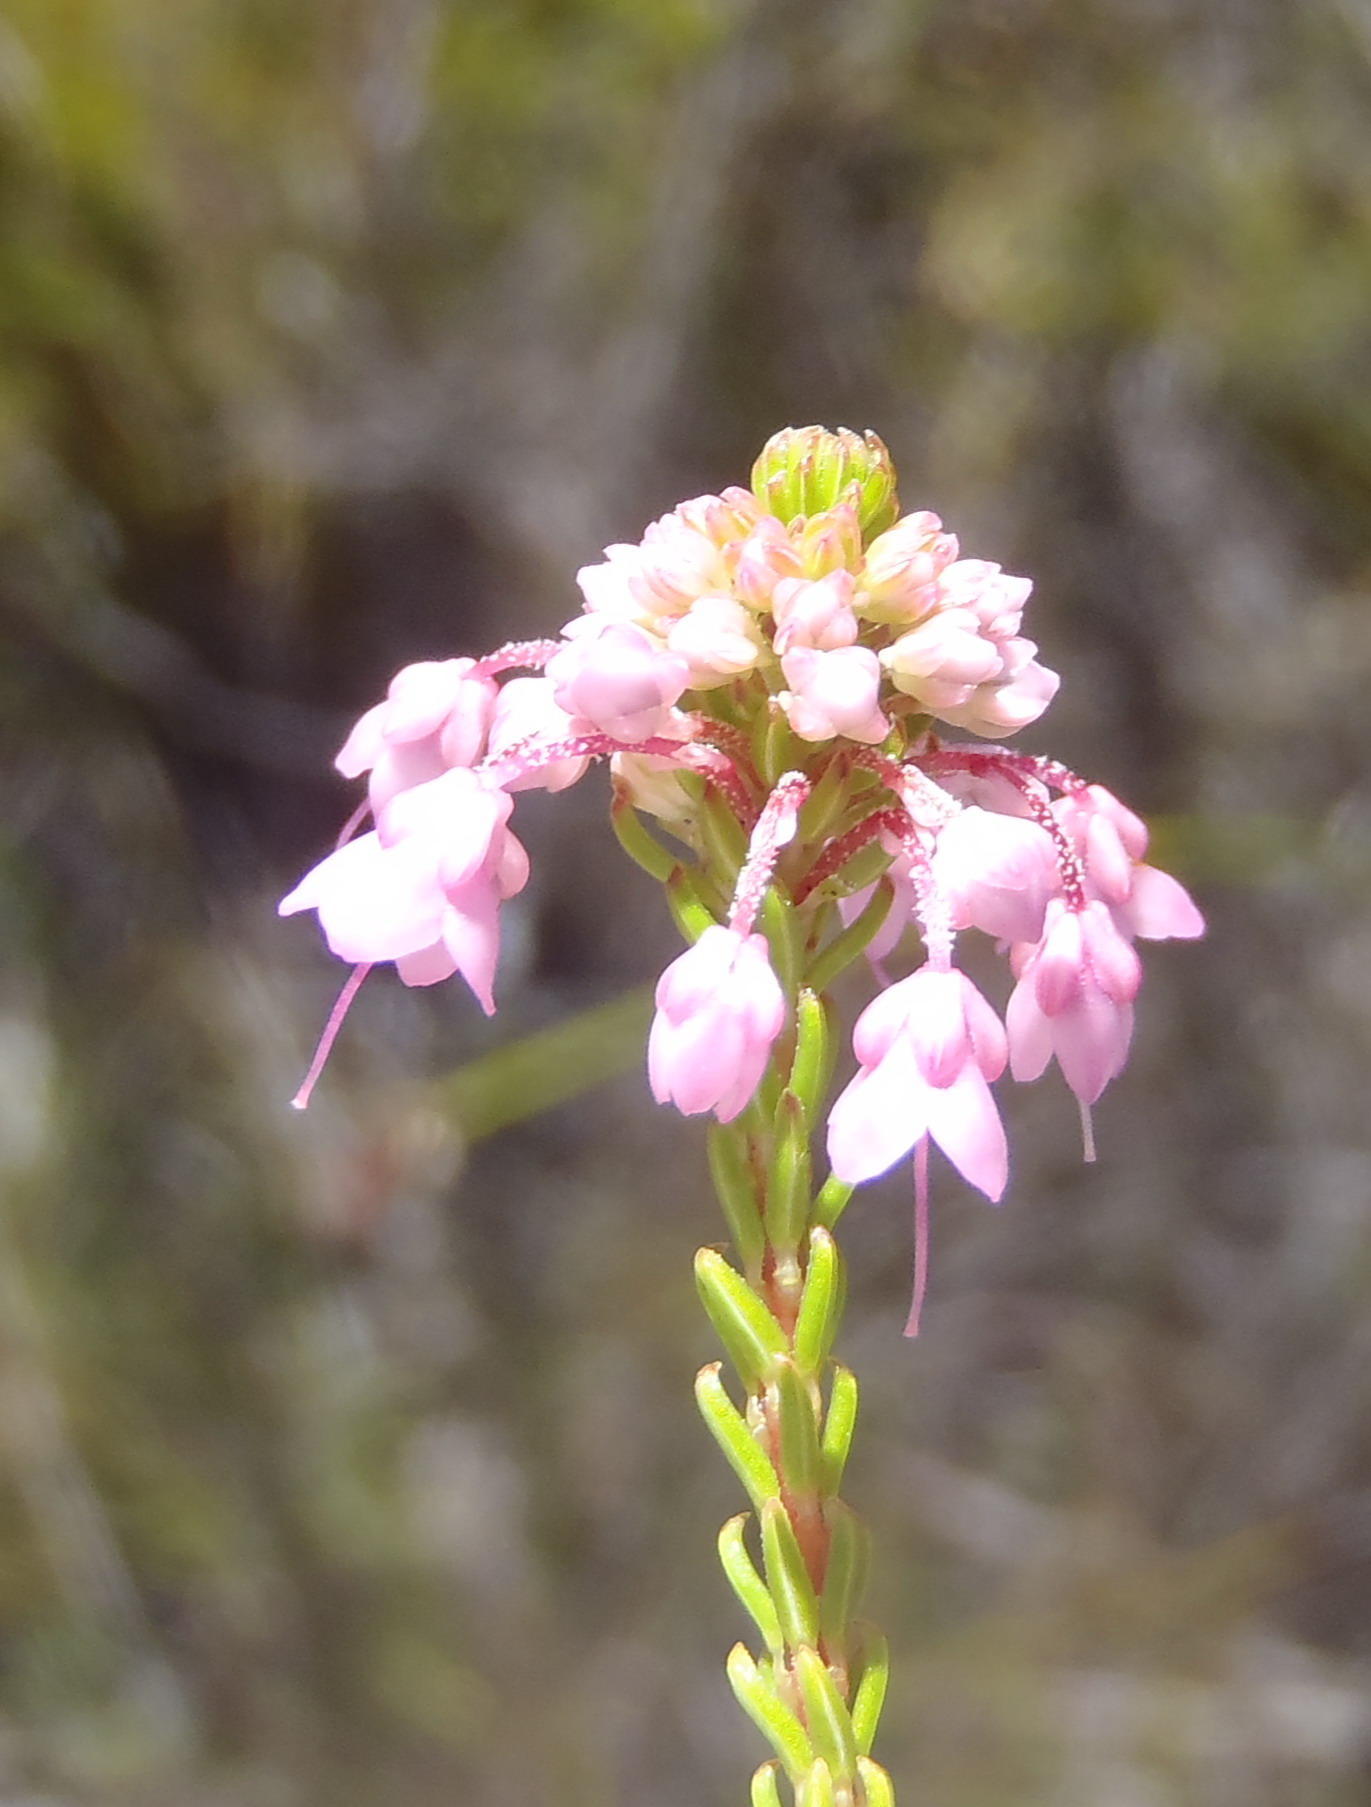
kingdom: Plantae
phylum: Tracheophyta
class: Magnoliopsida
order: Ericales
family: Ericaceae
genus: Erica
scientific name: Erica seriphiifolia
